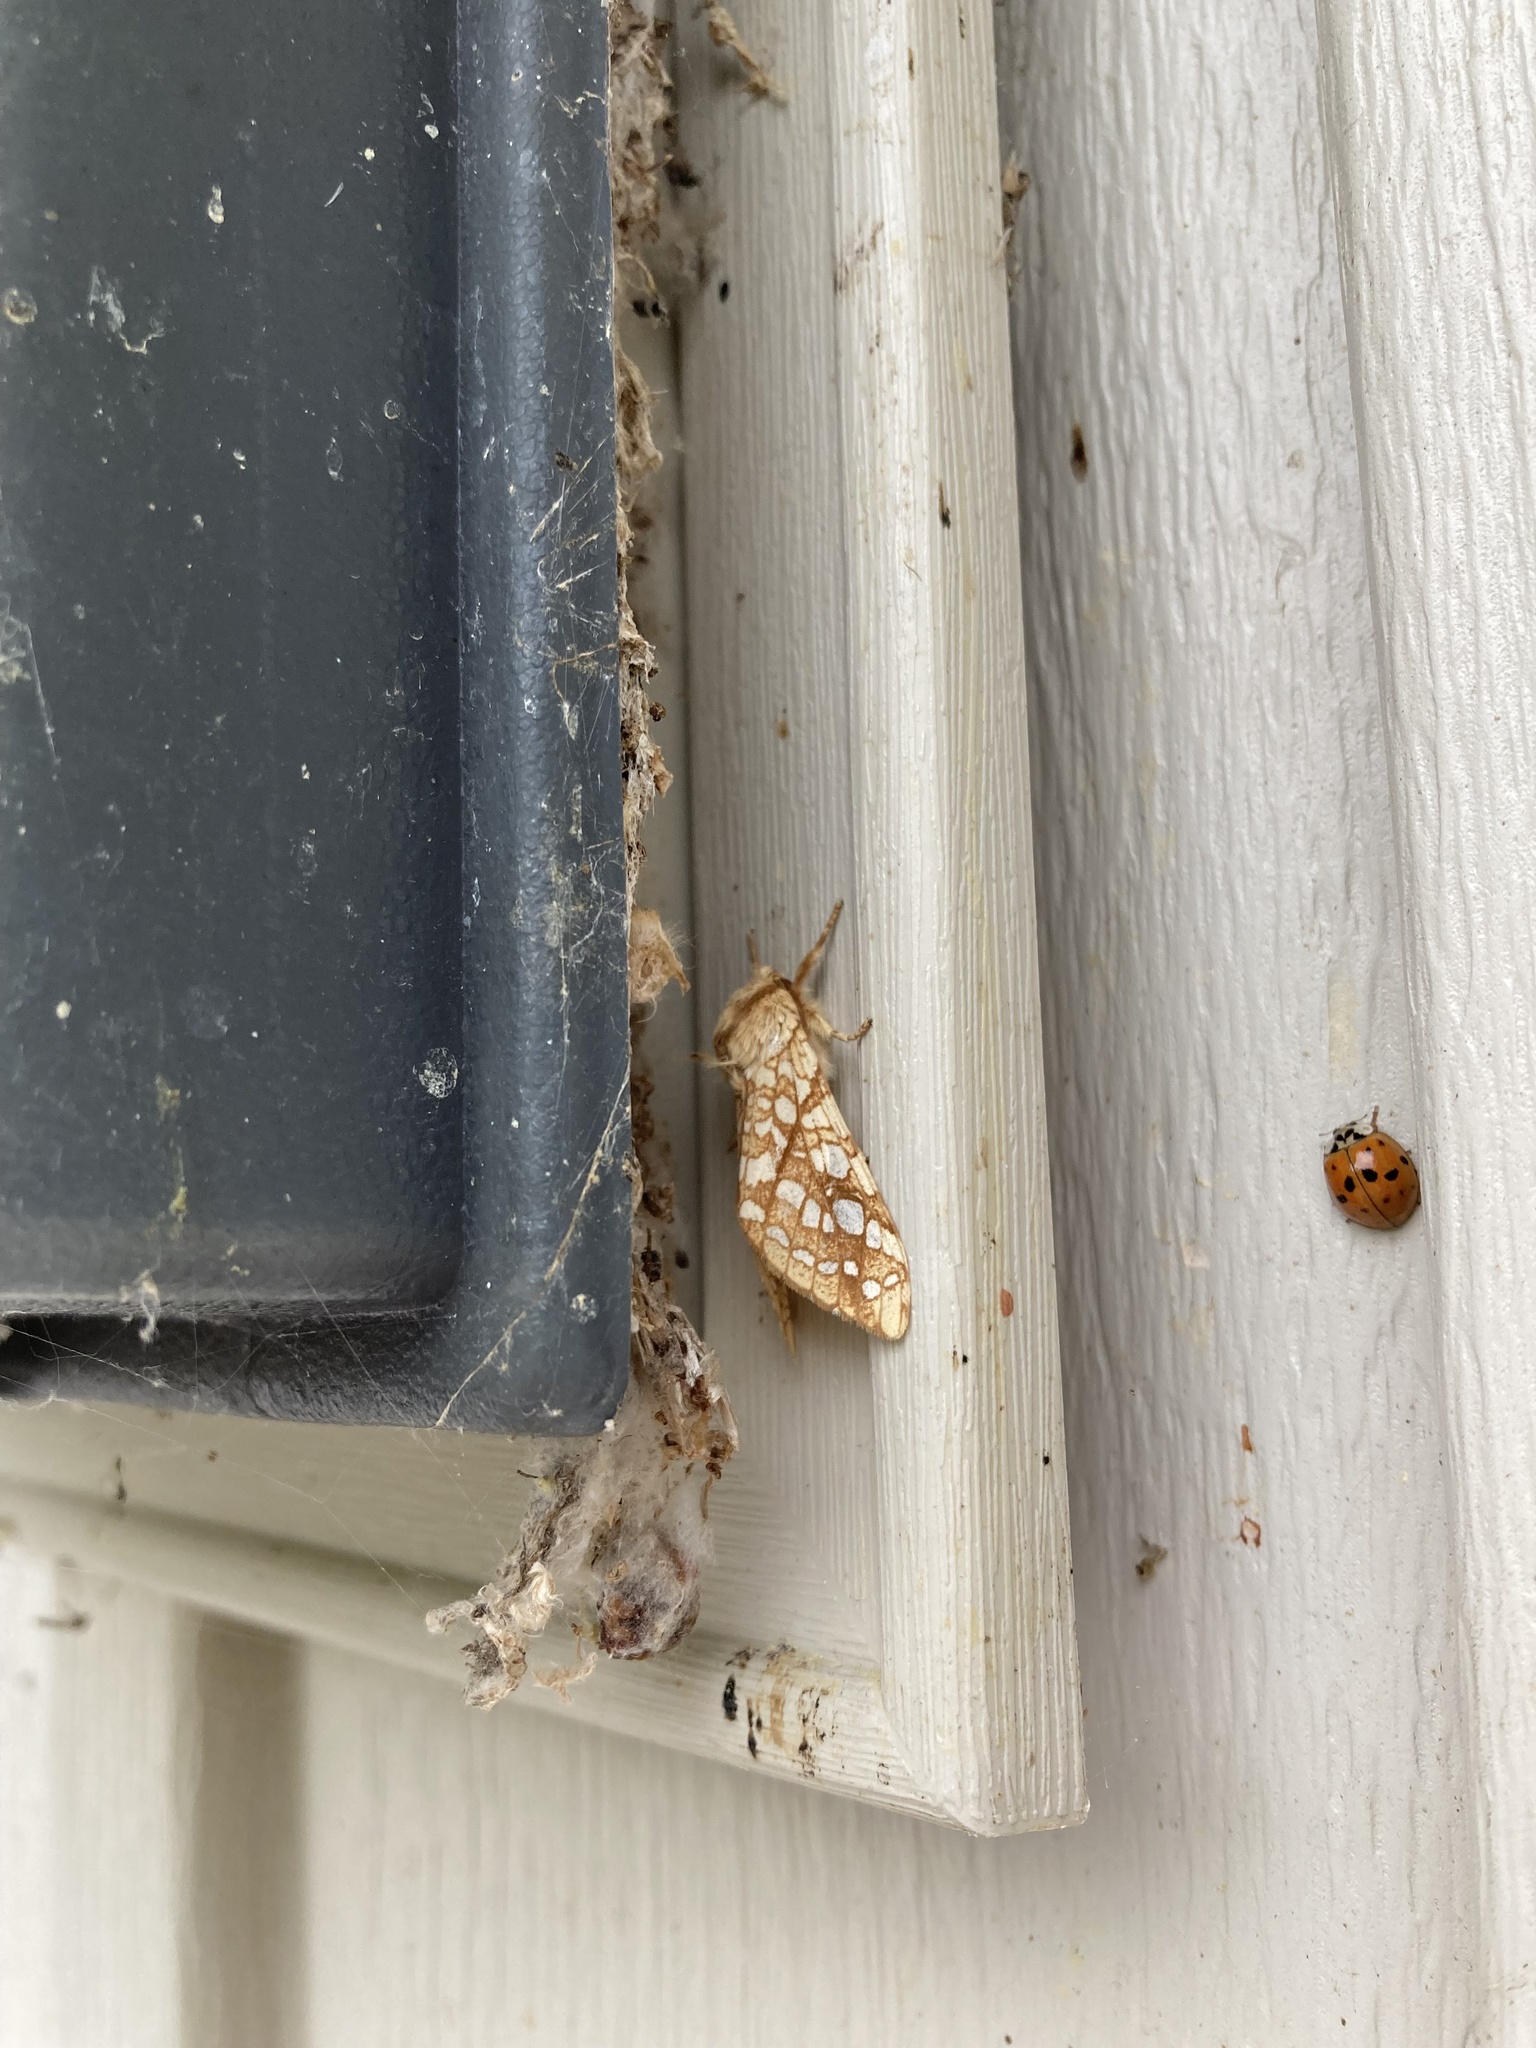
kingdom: Animalia
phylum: Arthropoda
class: Insecta
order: Lepidoptera
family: Erebidae
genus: Lophocampa
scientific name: Lophocampa caryae
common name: Hickory tussock moth
